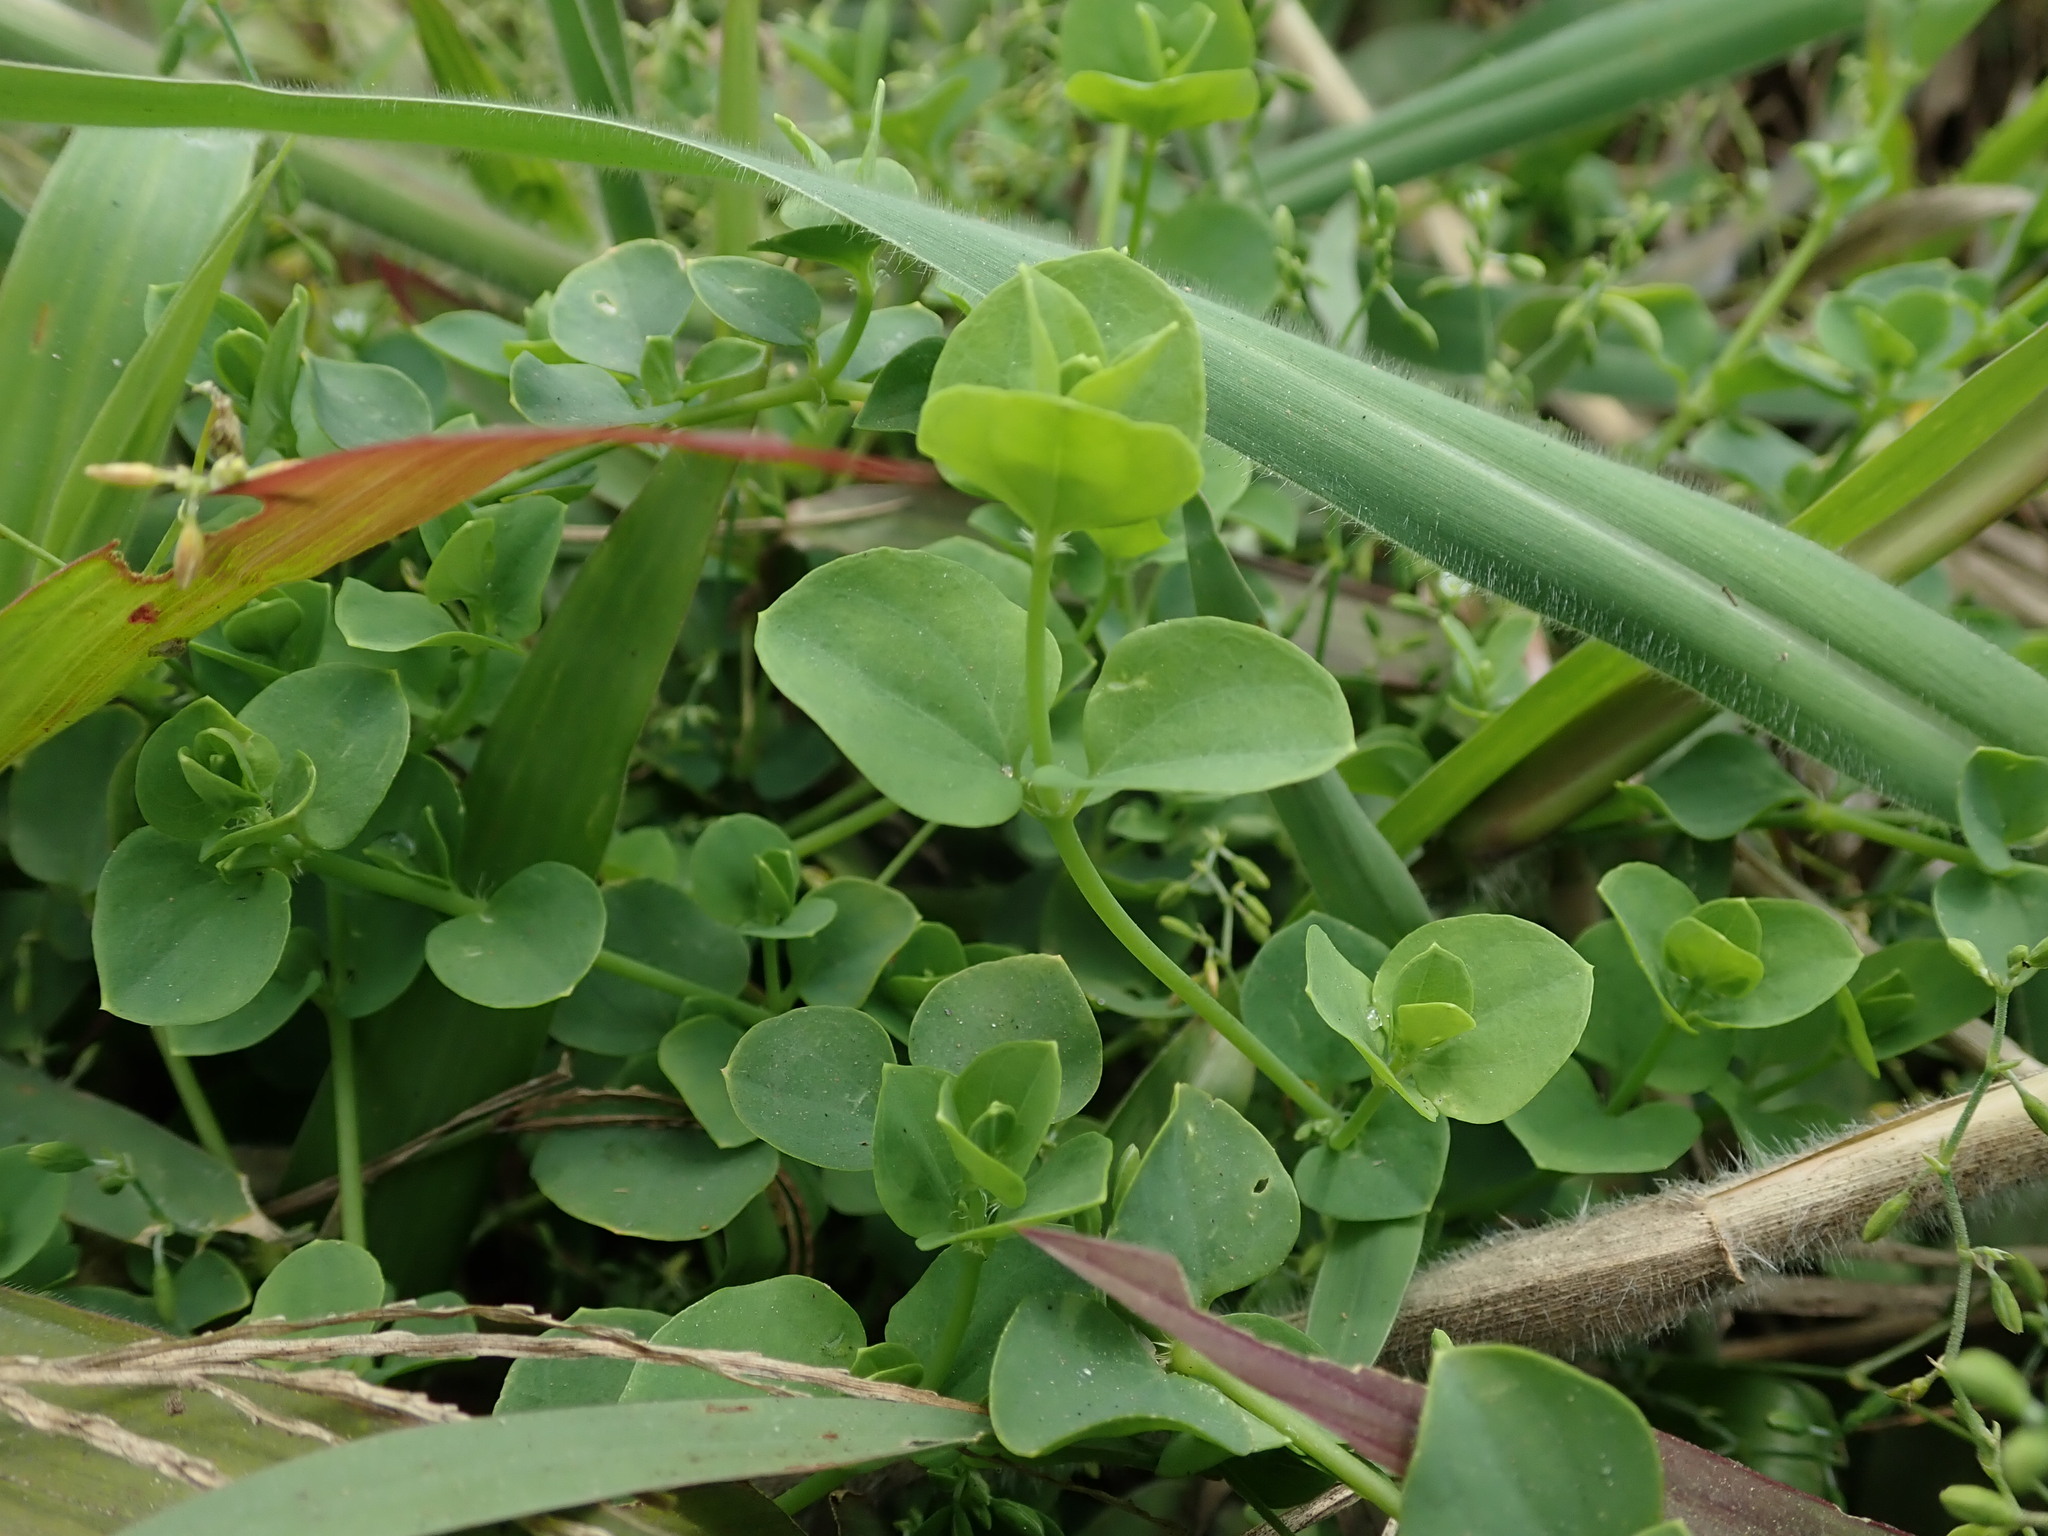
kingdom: Plantae
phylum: Tracheophyta
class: Magnoliopsida
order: Caryophyllales
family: Caryophyllaceae
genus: Drymaria
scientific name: Drymaria cordata
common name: Whitesnow
